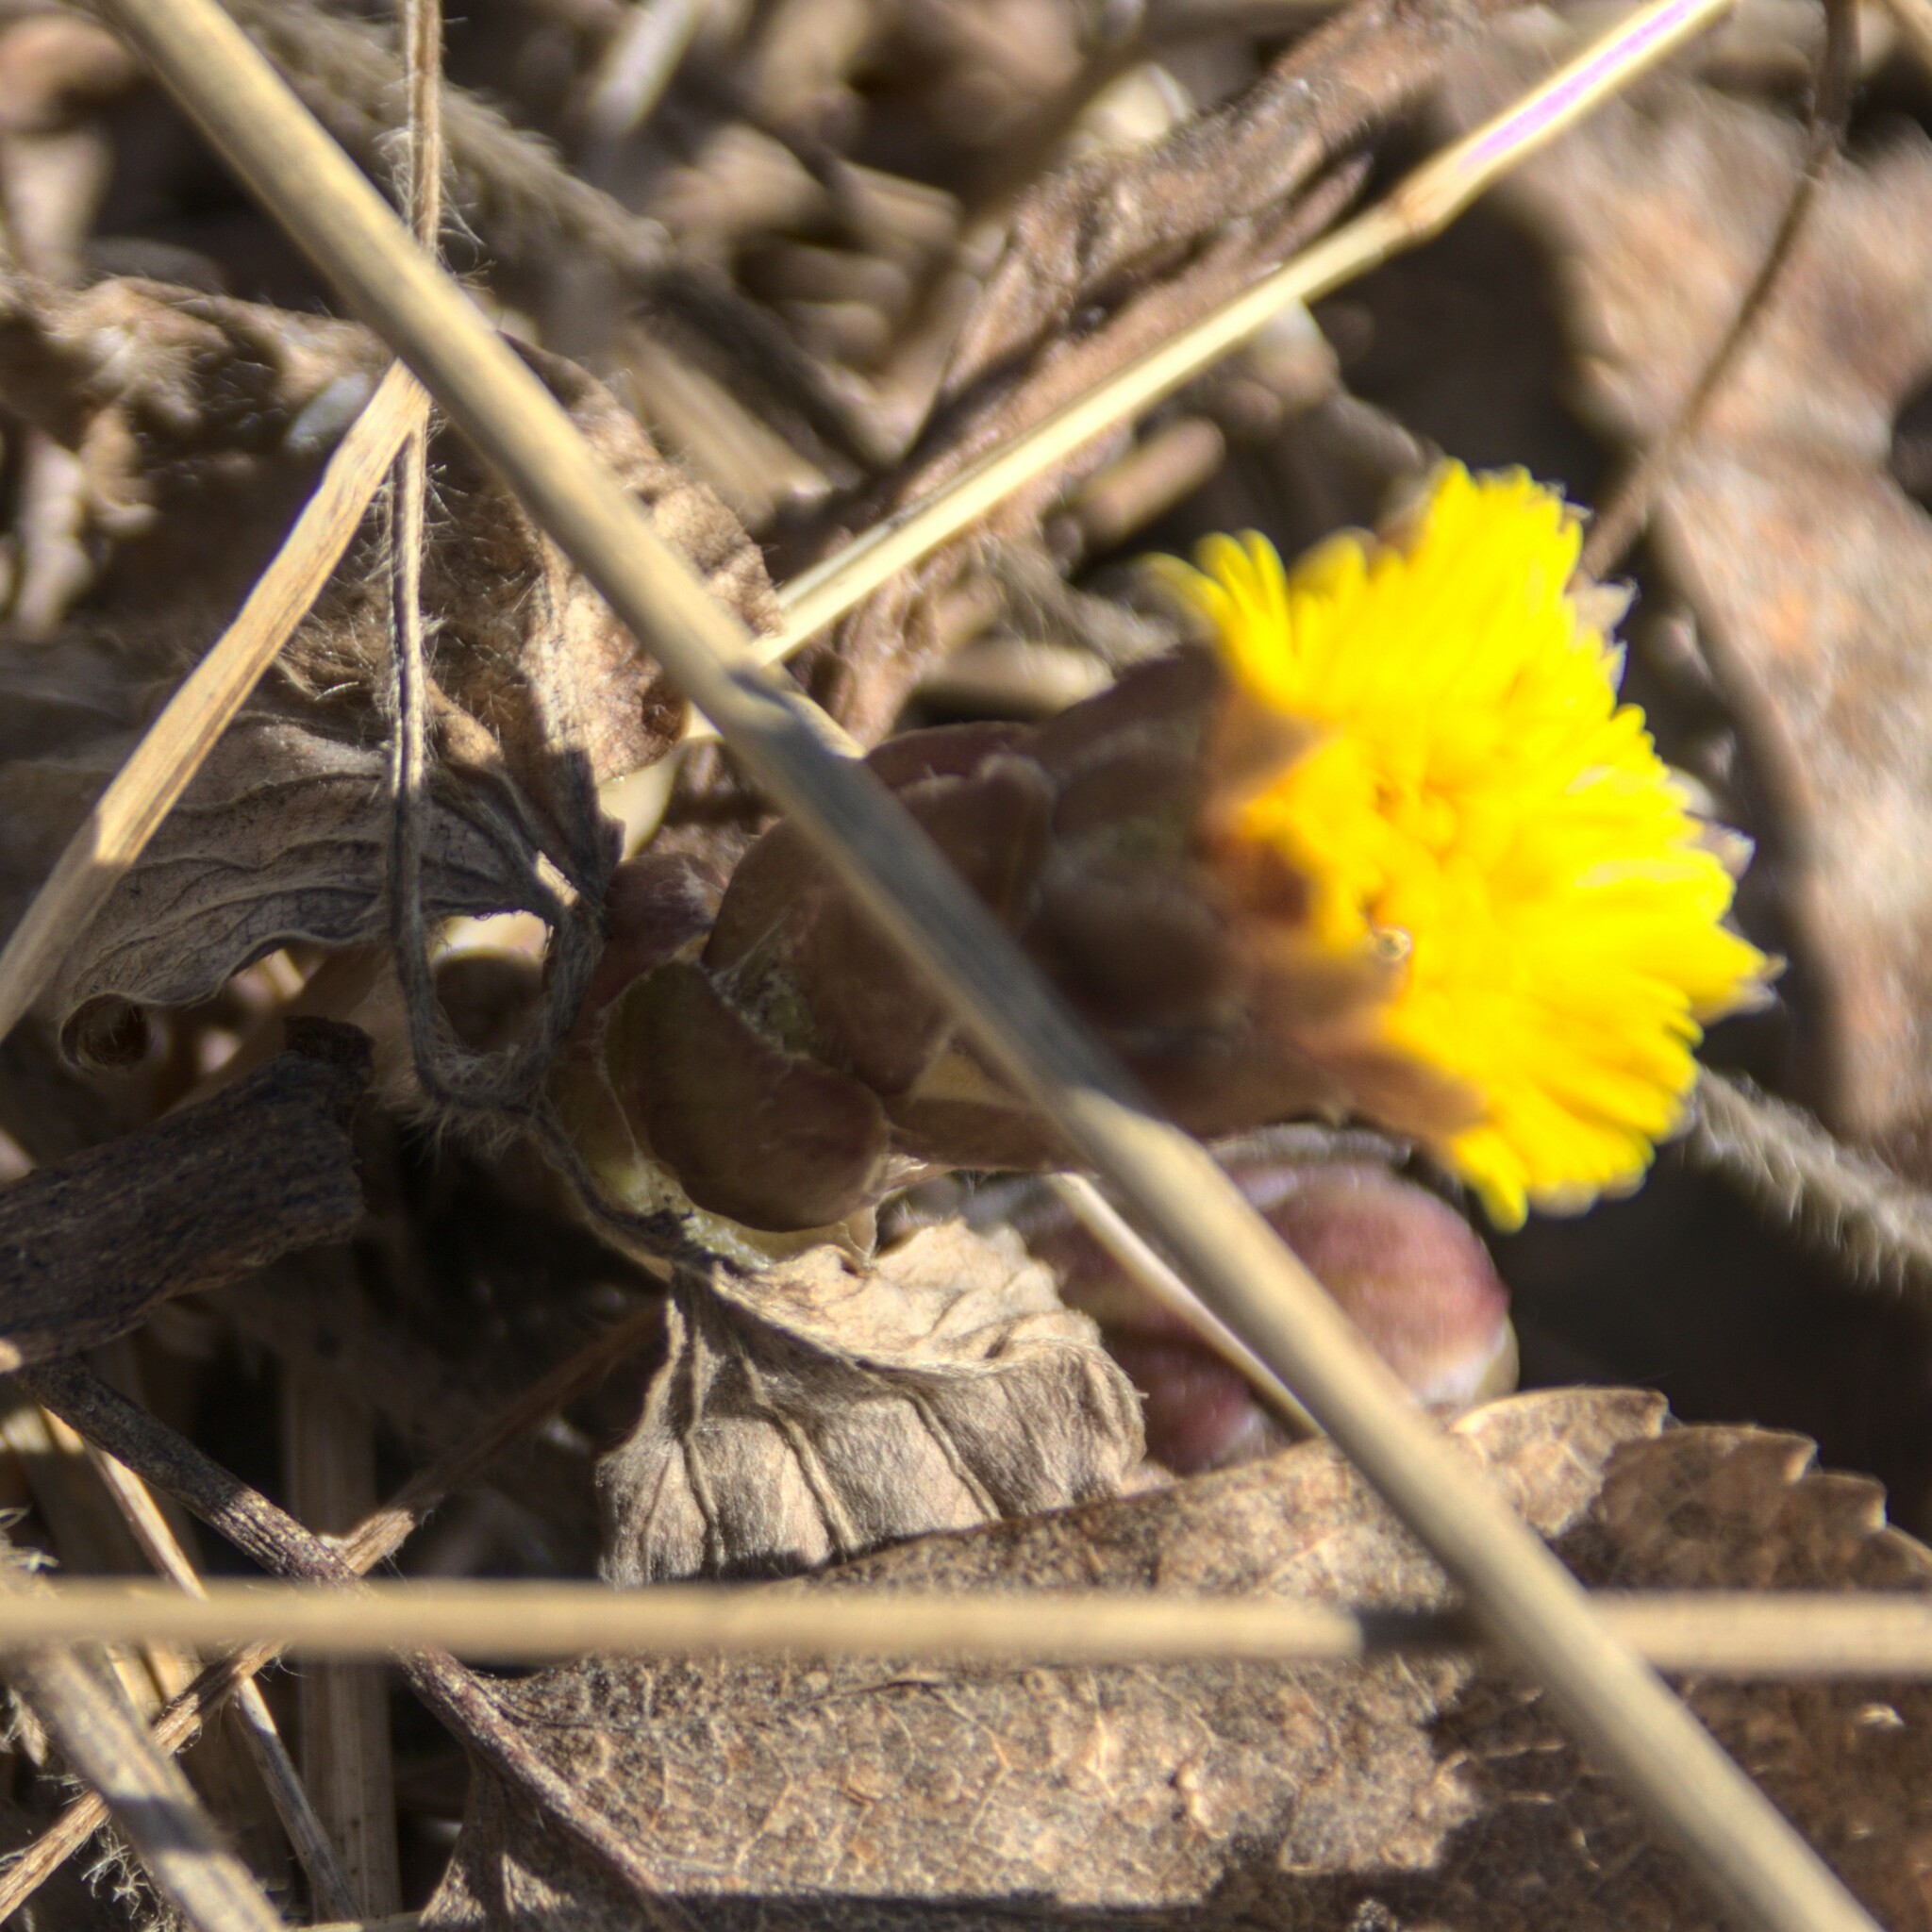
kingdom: Plantae
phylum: Tracheophyta
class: Magnoliopsida
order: Asterales
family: Asteraceae
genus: Tussilago
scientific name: Tussilago farfara
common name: Coltsfoot
